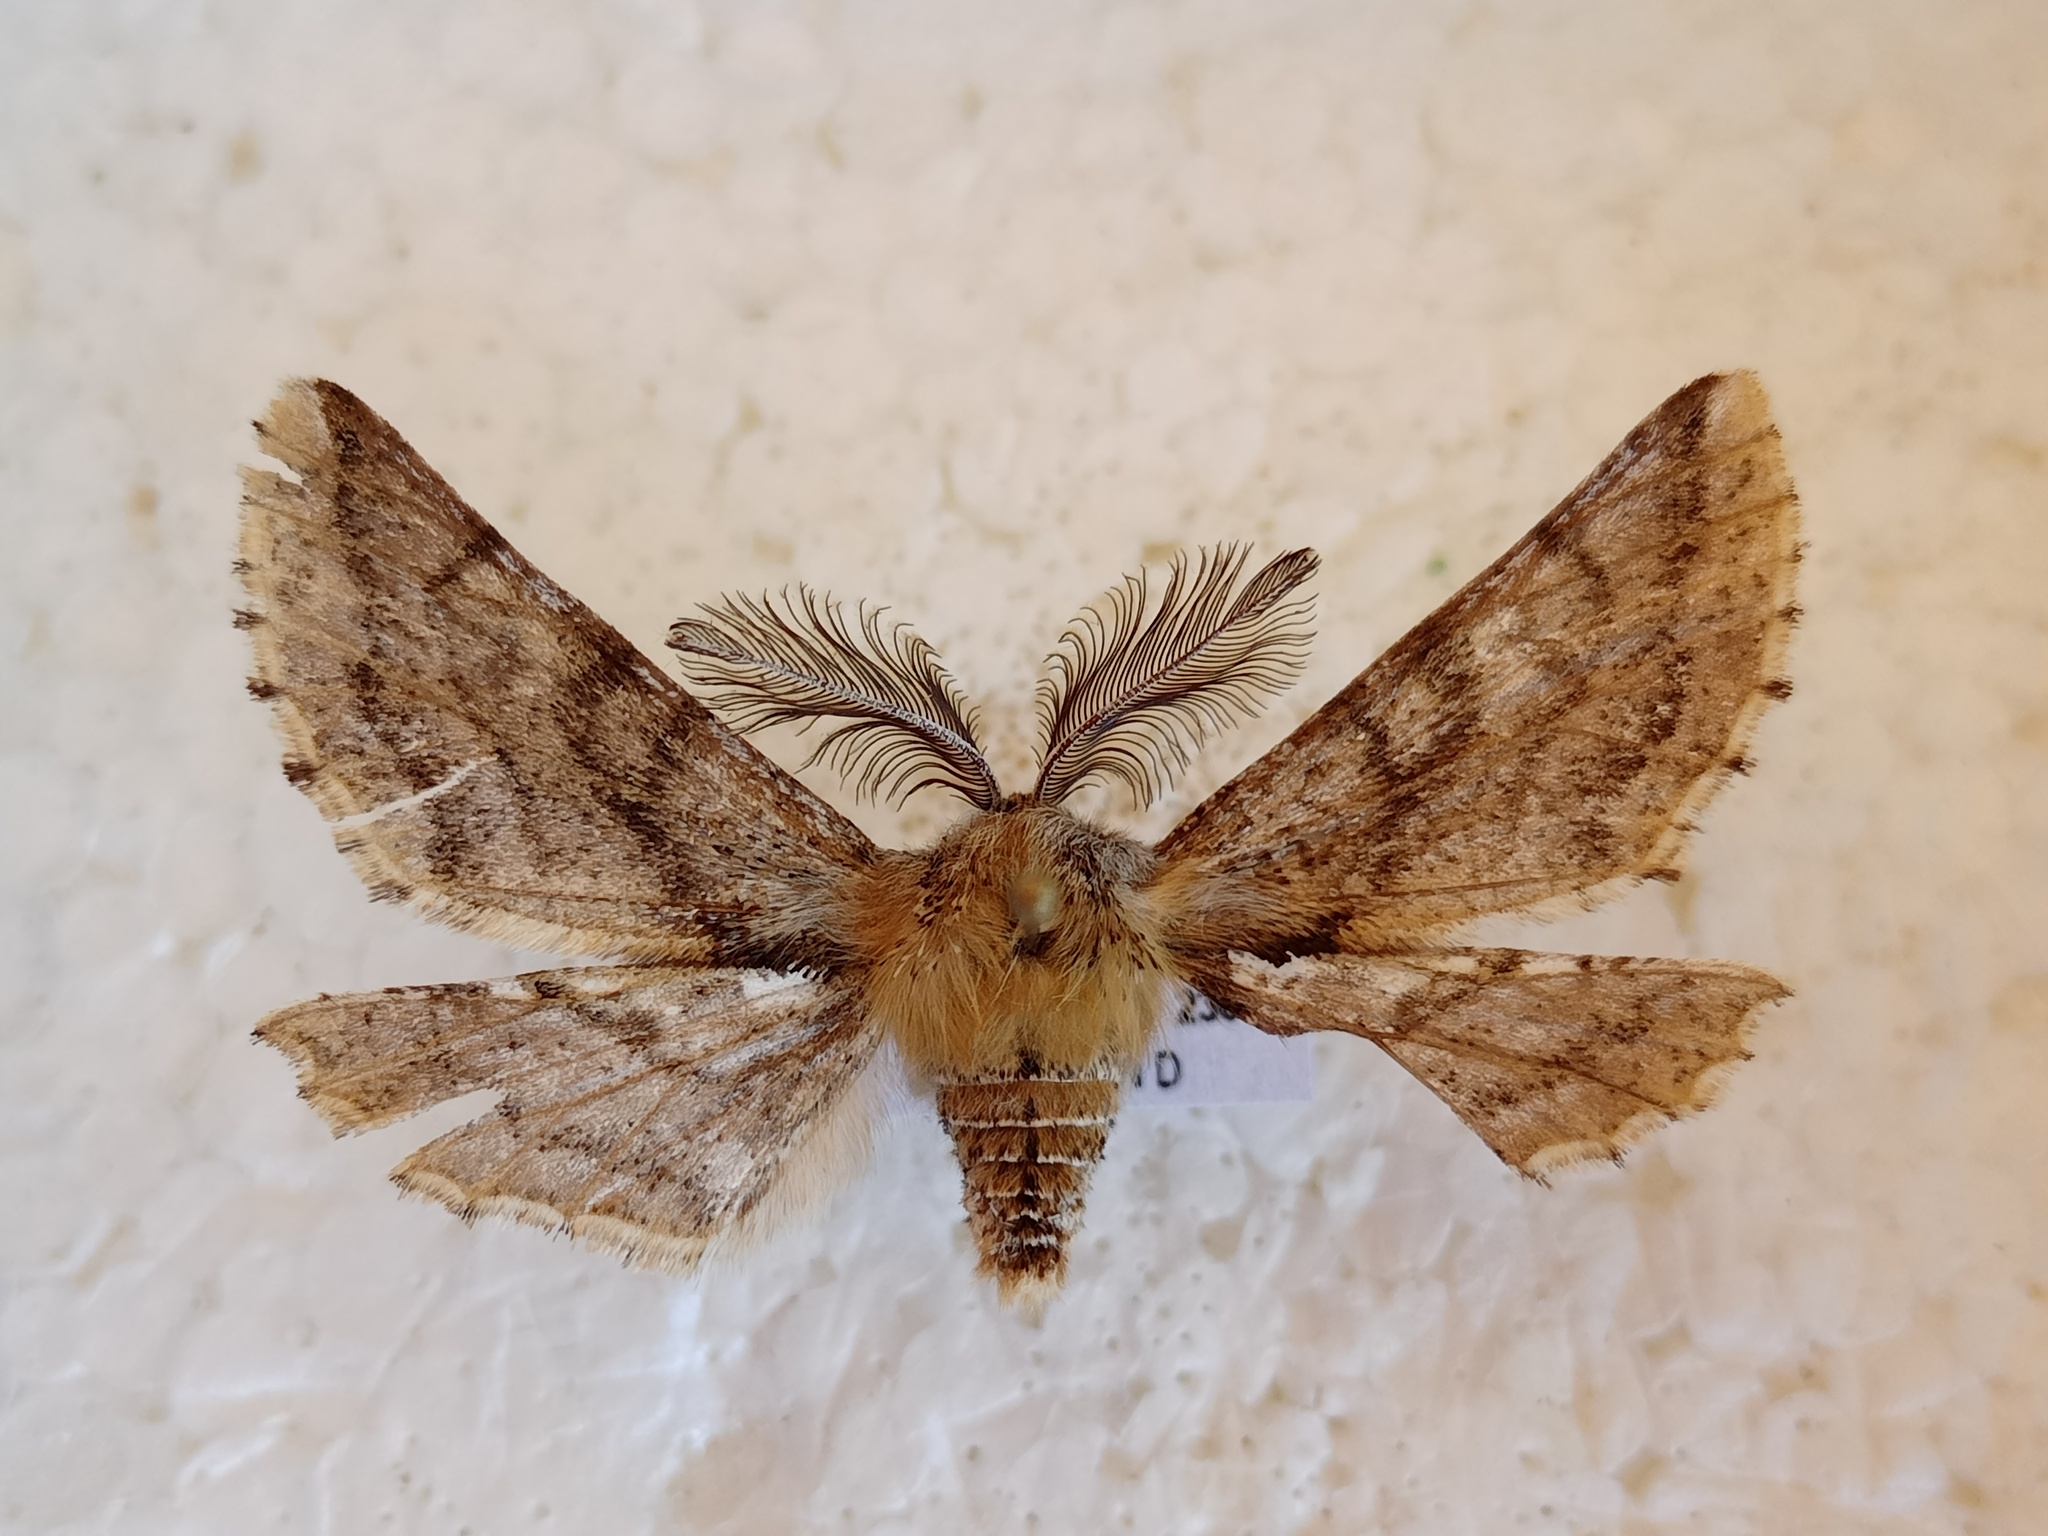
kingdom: Animalia
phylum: Arthropoda
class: Insecta
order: Lepidoptera
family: Geometridae
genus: Apochima
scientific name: Apochima flabellaria
